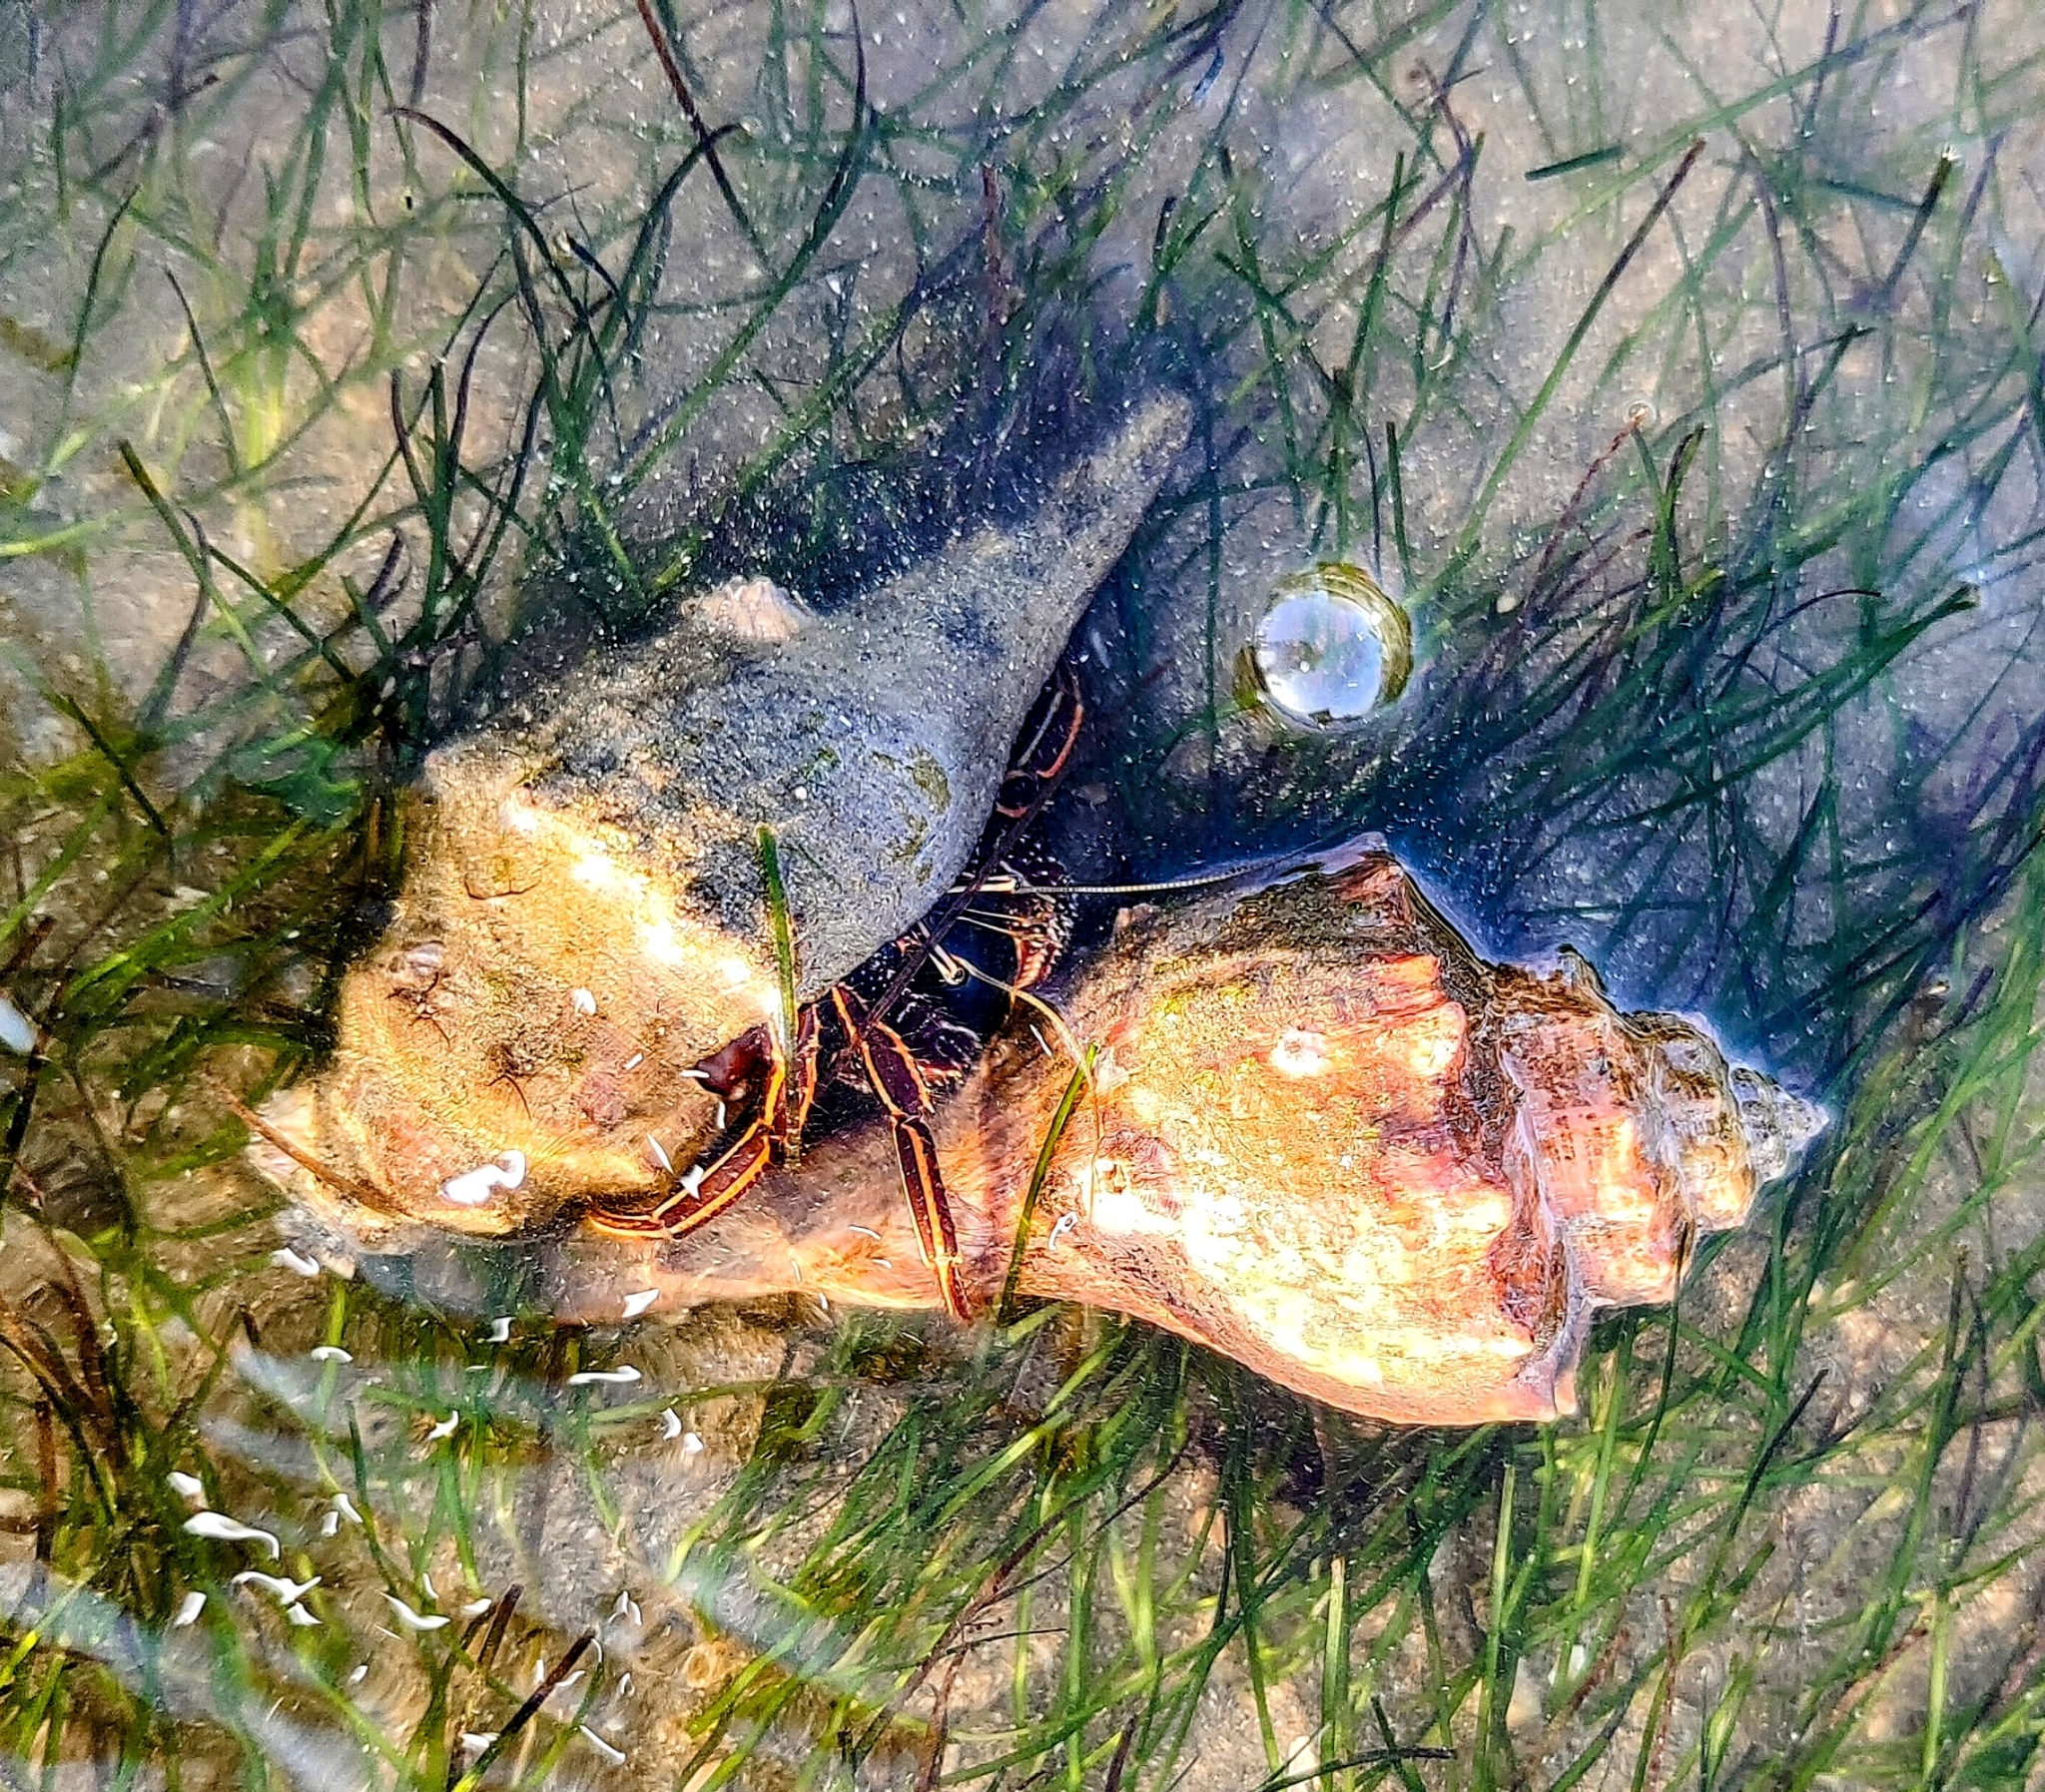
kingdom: Animalia
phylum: Arthropoda
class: Malacostraca
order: Decapoda
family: Diogenidae
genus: Clibanarius
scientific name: Clibanarius infraspinatus
